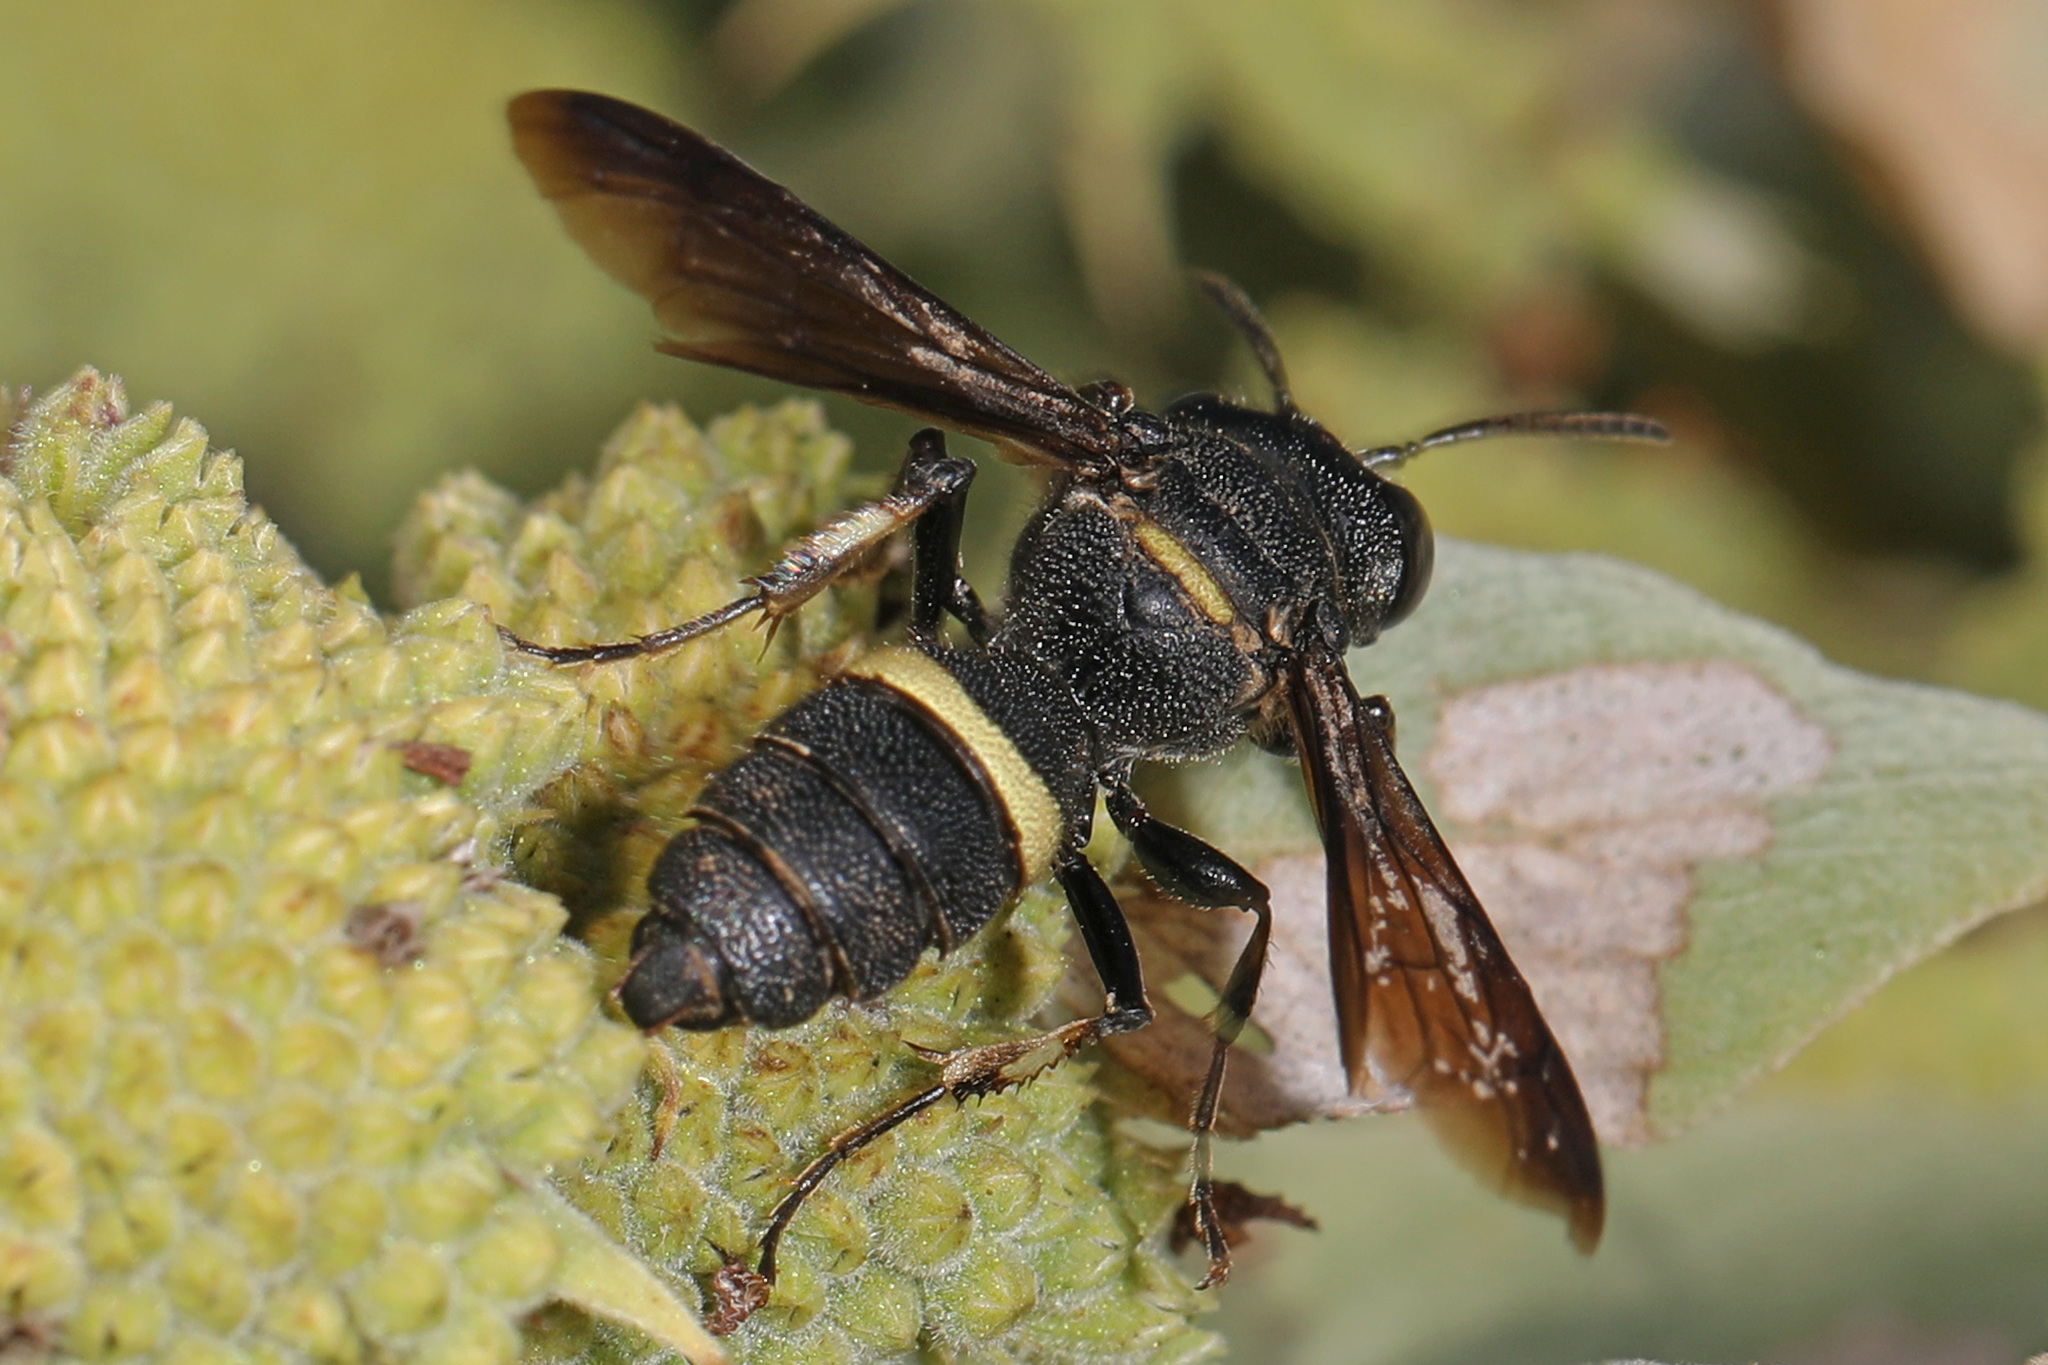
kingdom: Animalia
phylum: Arthropoda
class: Insecta
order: Hymenoptera
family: Crabronidae
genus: Cerceris
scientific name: Cerceris fumipennis
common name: Smokey-winged beetle bandit wasp
